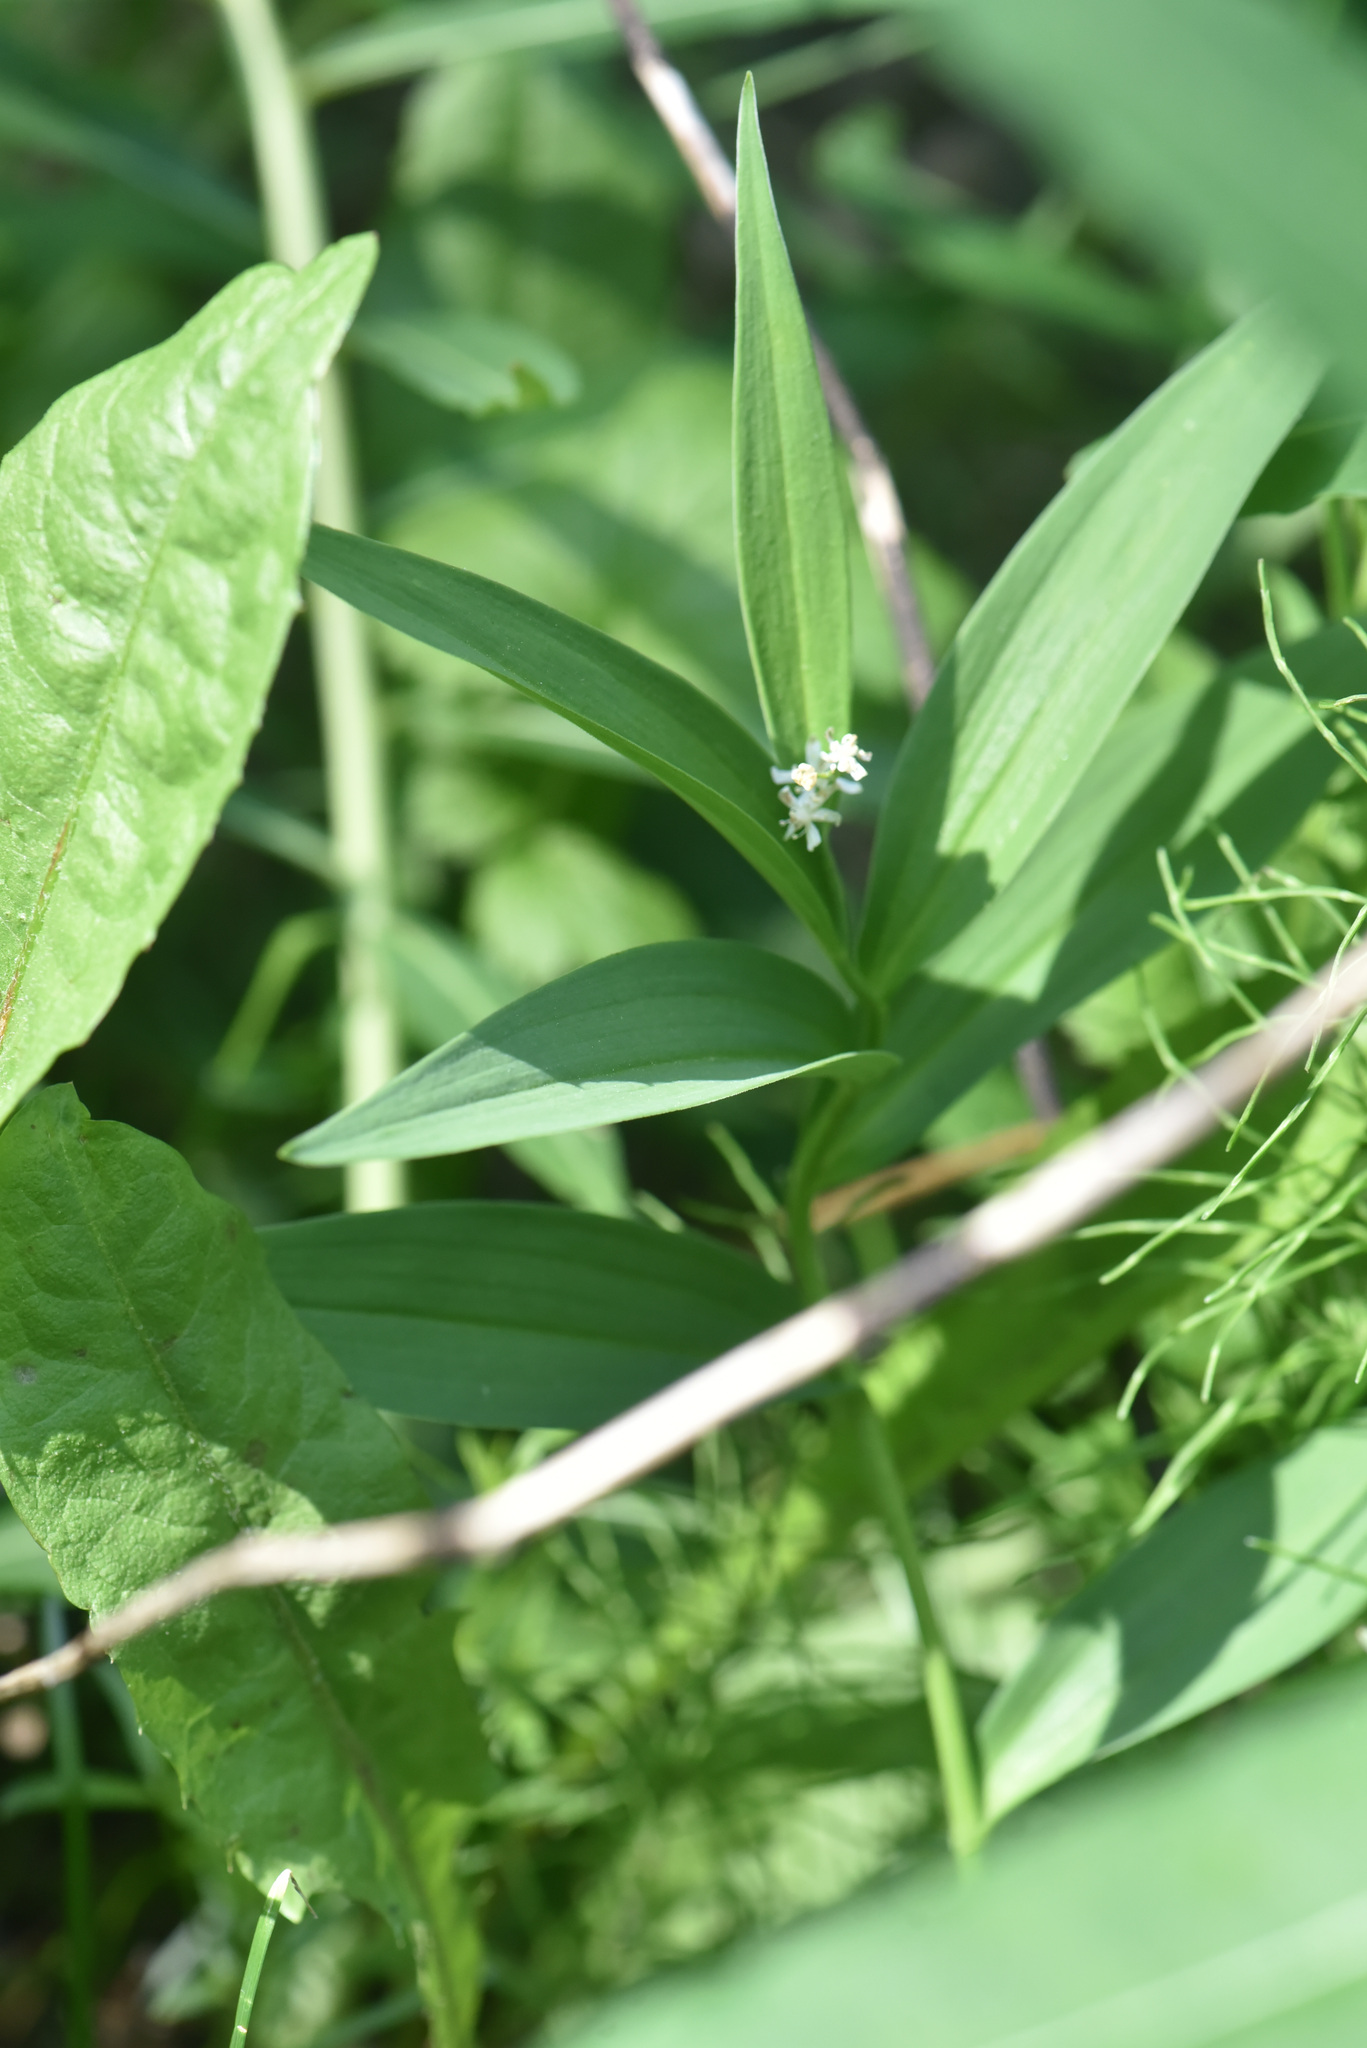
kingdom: Plantae
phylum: Tracheophyta
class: Liliopsida
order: Asparagales
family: Asparagaceae
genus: Maianthemum
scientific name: Maianthemum stellatum
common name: Little false solomon's seal
